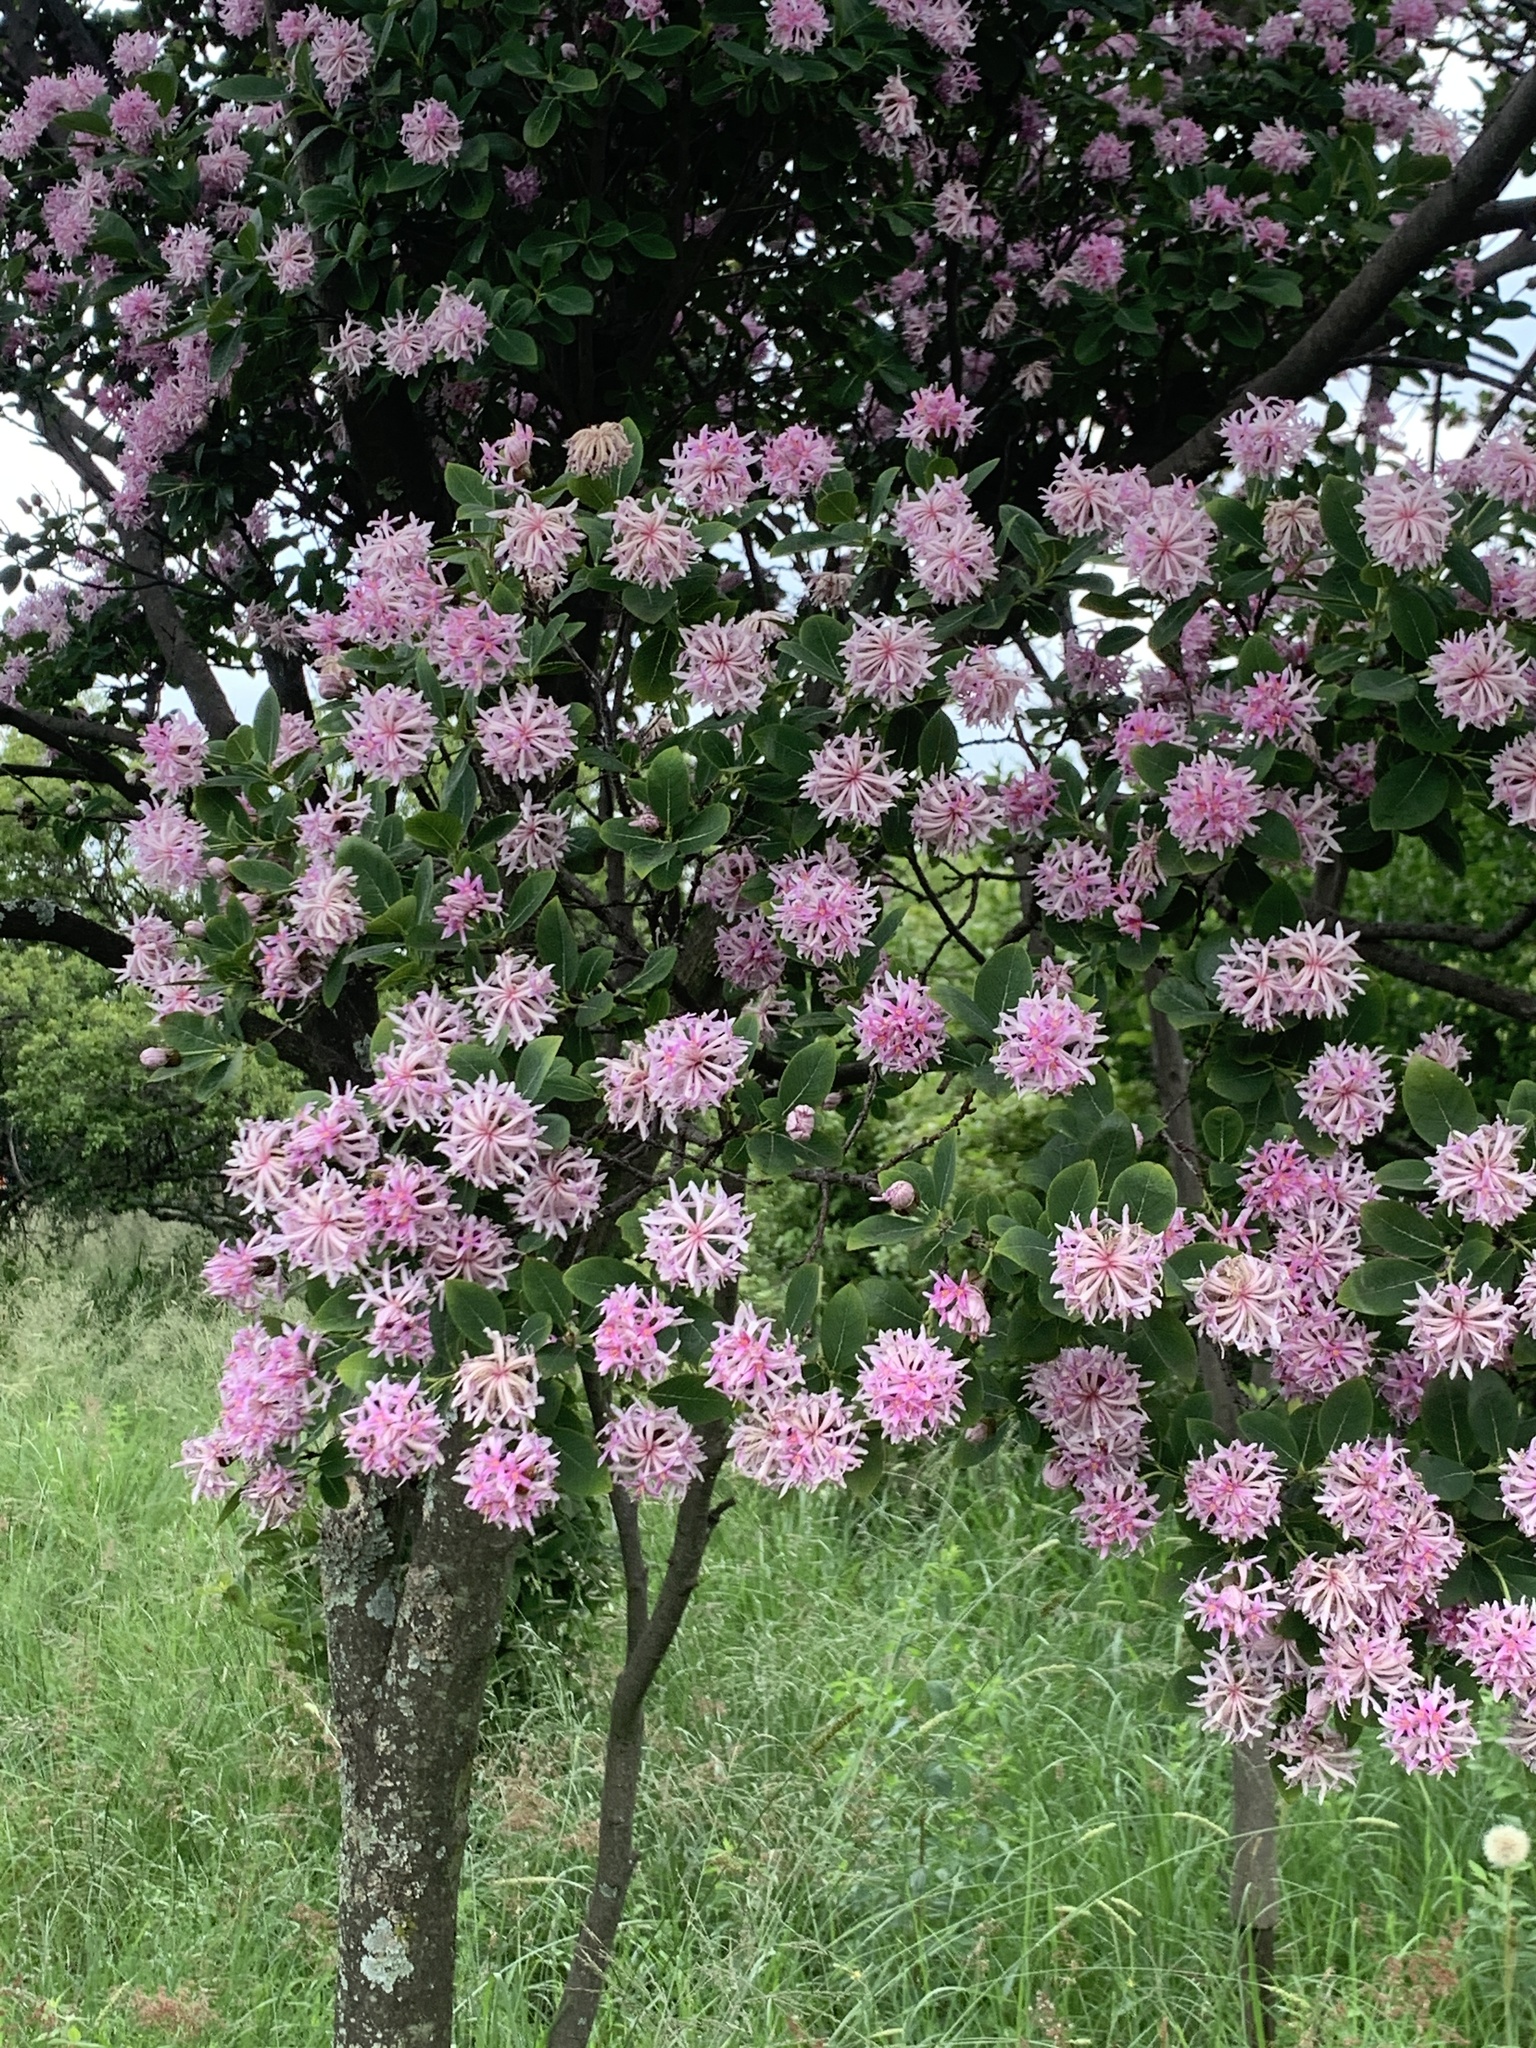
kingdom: Plantae
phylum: Tracheophyta
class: Magnoliopsida
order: Malvales
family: Thymelaeaceae
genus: Dais
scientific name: Dais cotinifolia
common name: Pompon tree
